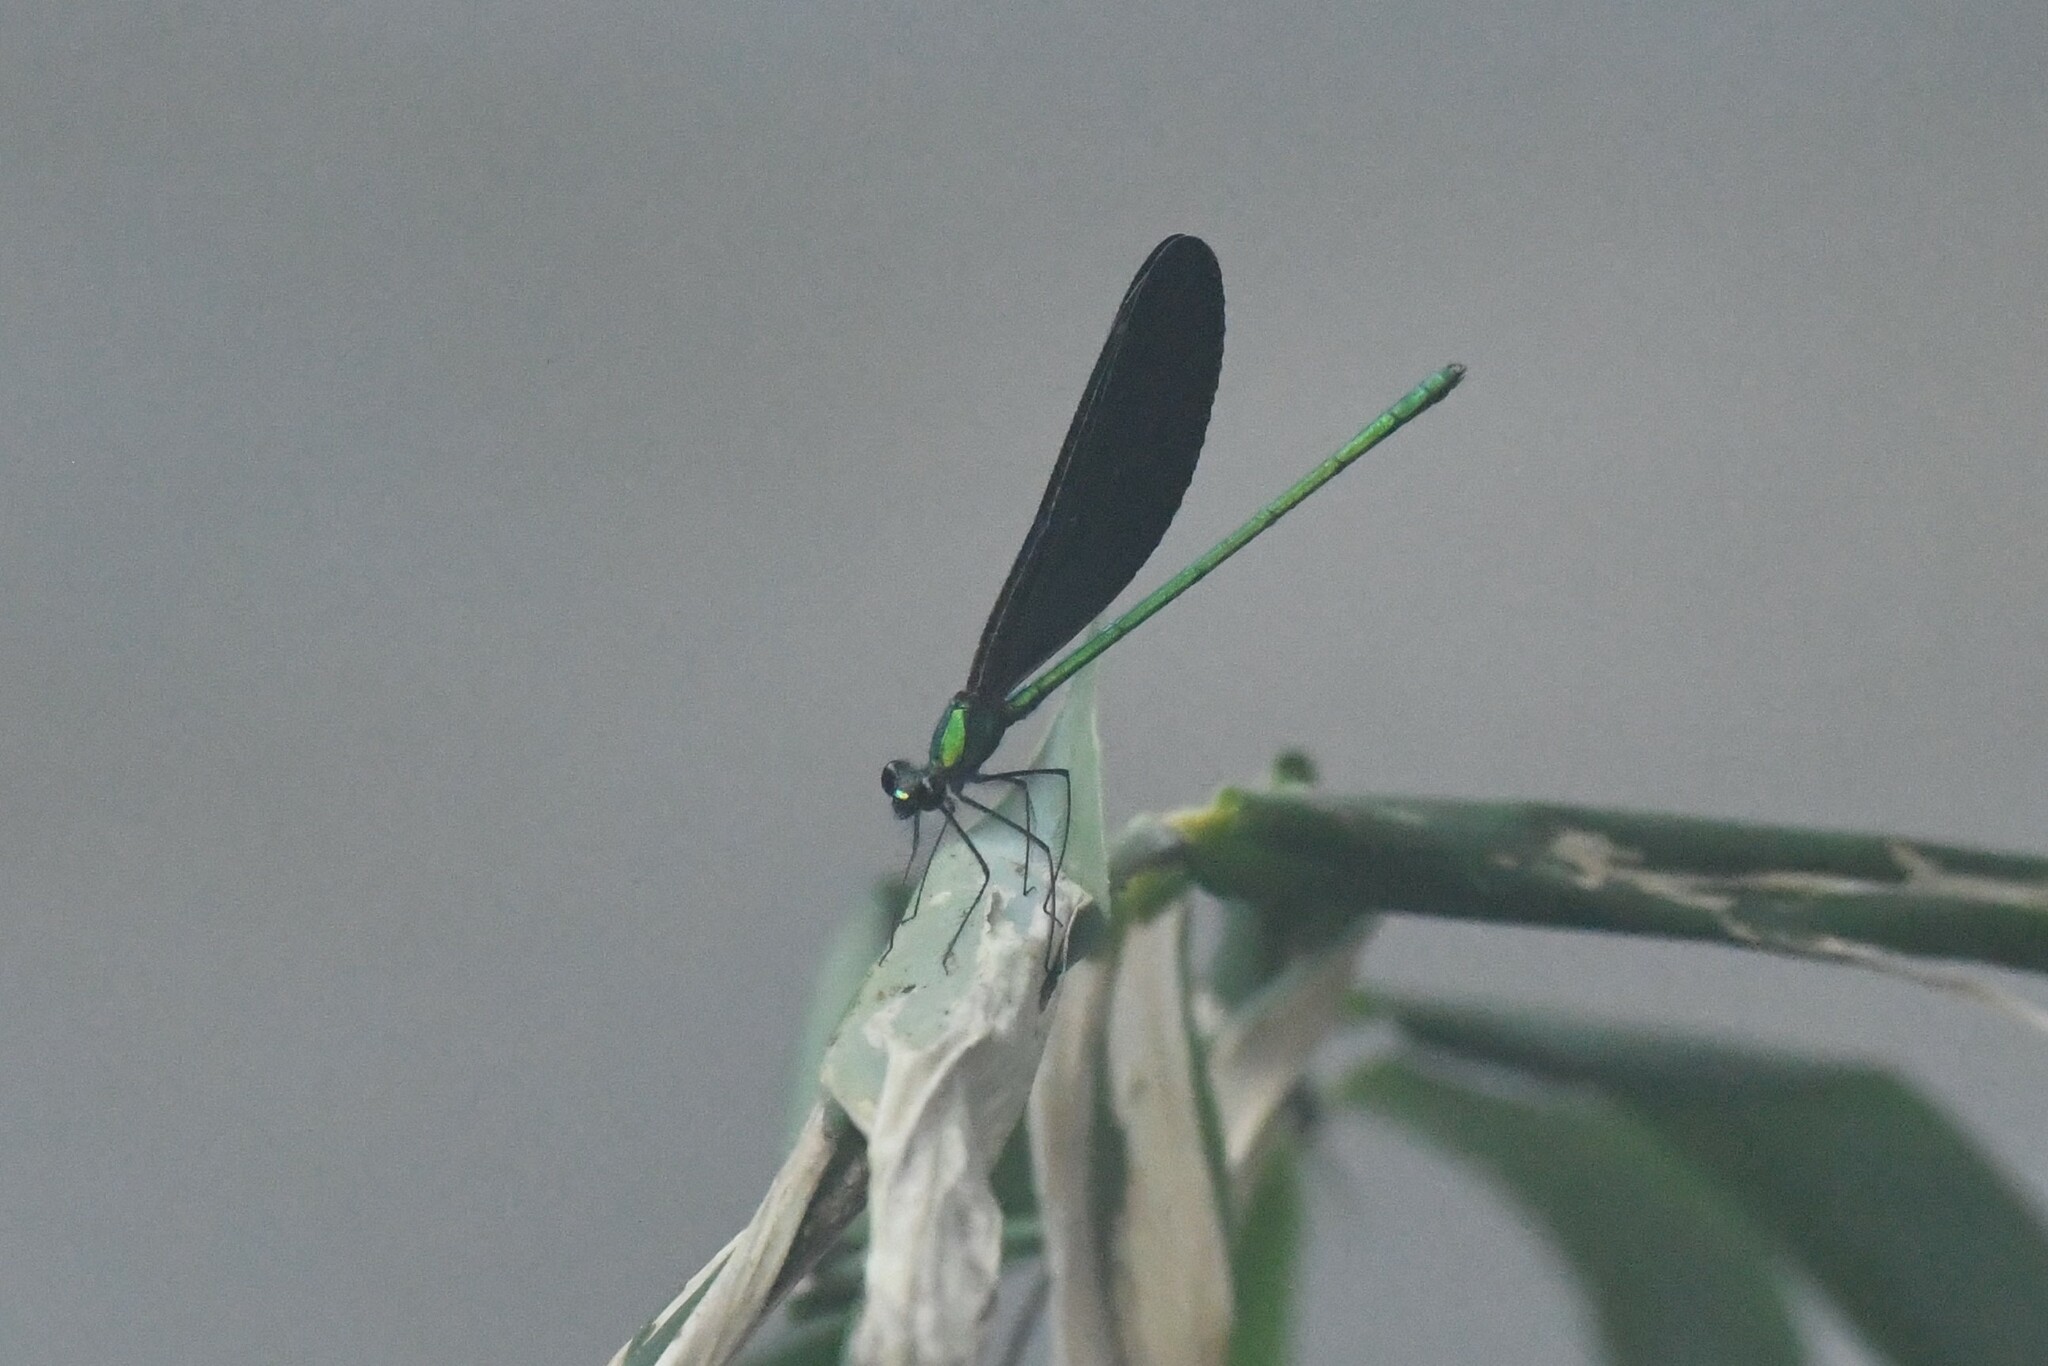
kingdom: Animalia
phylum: Arthropoda
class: Insecta
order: Odonata
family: Calopterygidae
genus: Matrona
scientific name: Matrona nigripectus
